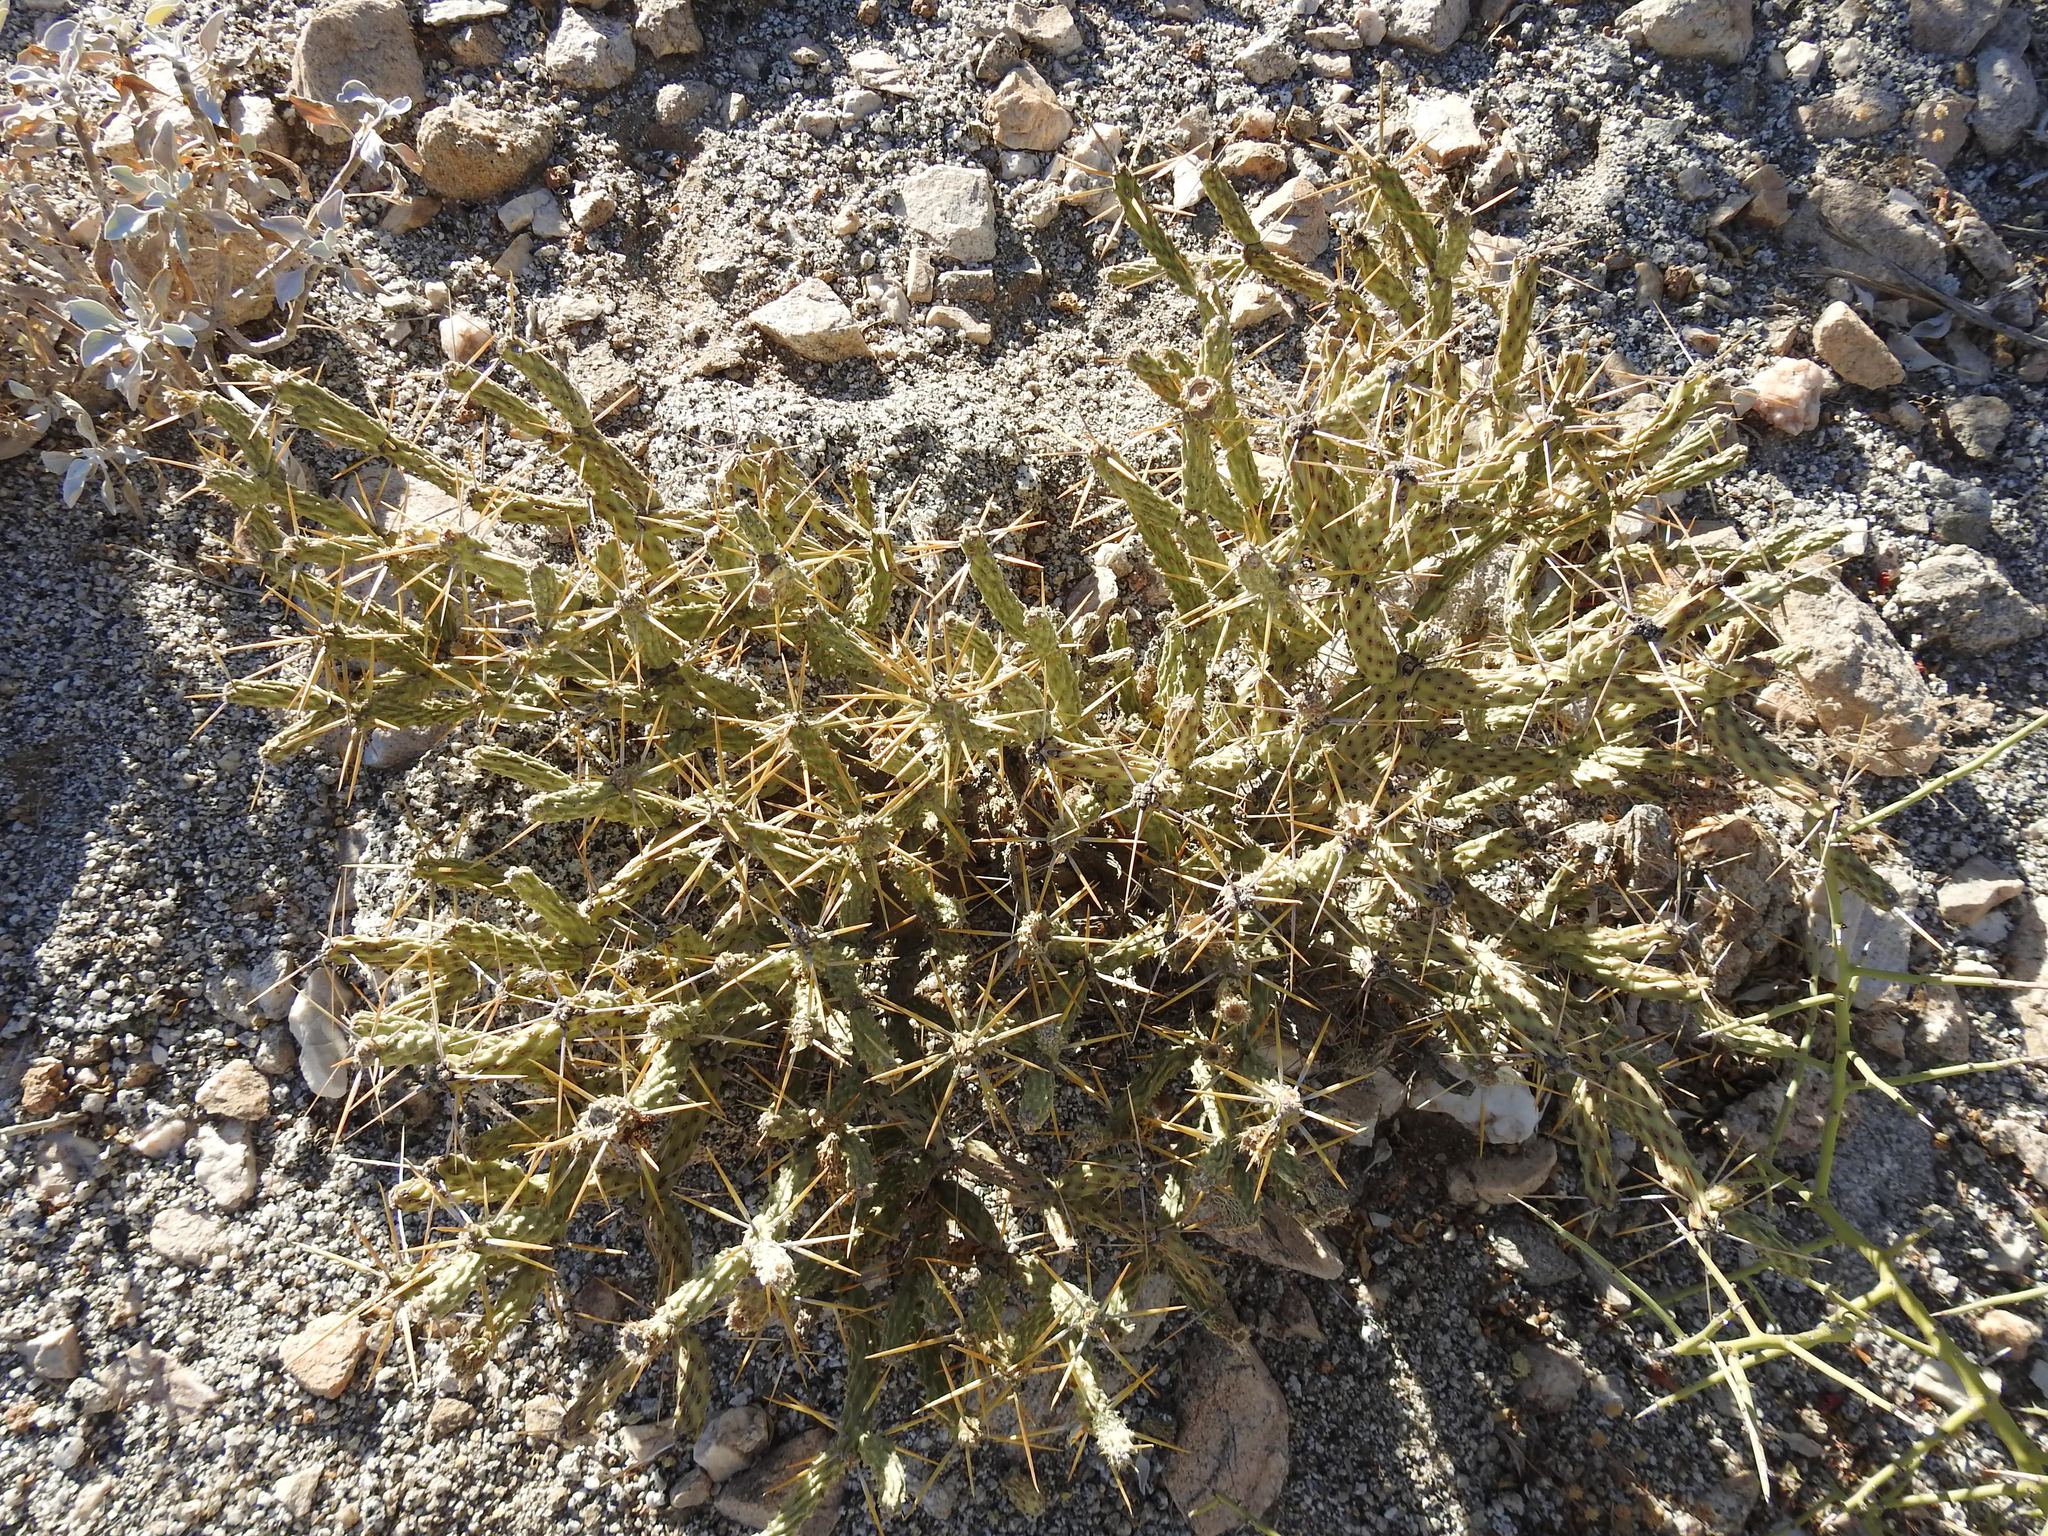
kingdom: Plantae
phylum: Tracheophyta
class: Magnoliopsida
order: Caryophyllales
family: Cactaceae
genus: Cylindropuntia
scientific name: Cylindropuntia tesajo
